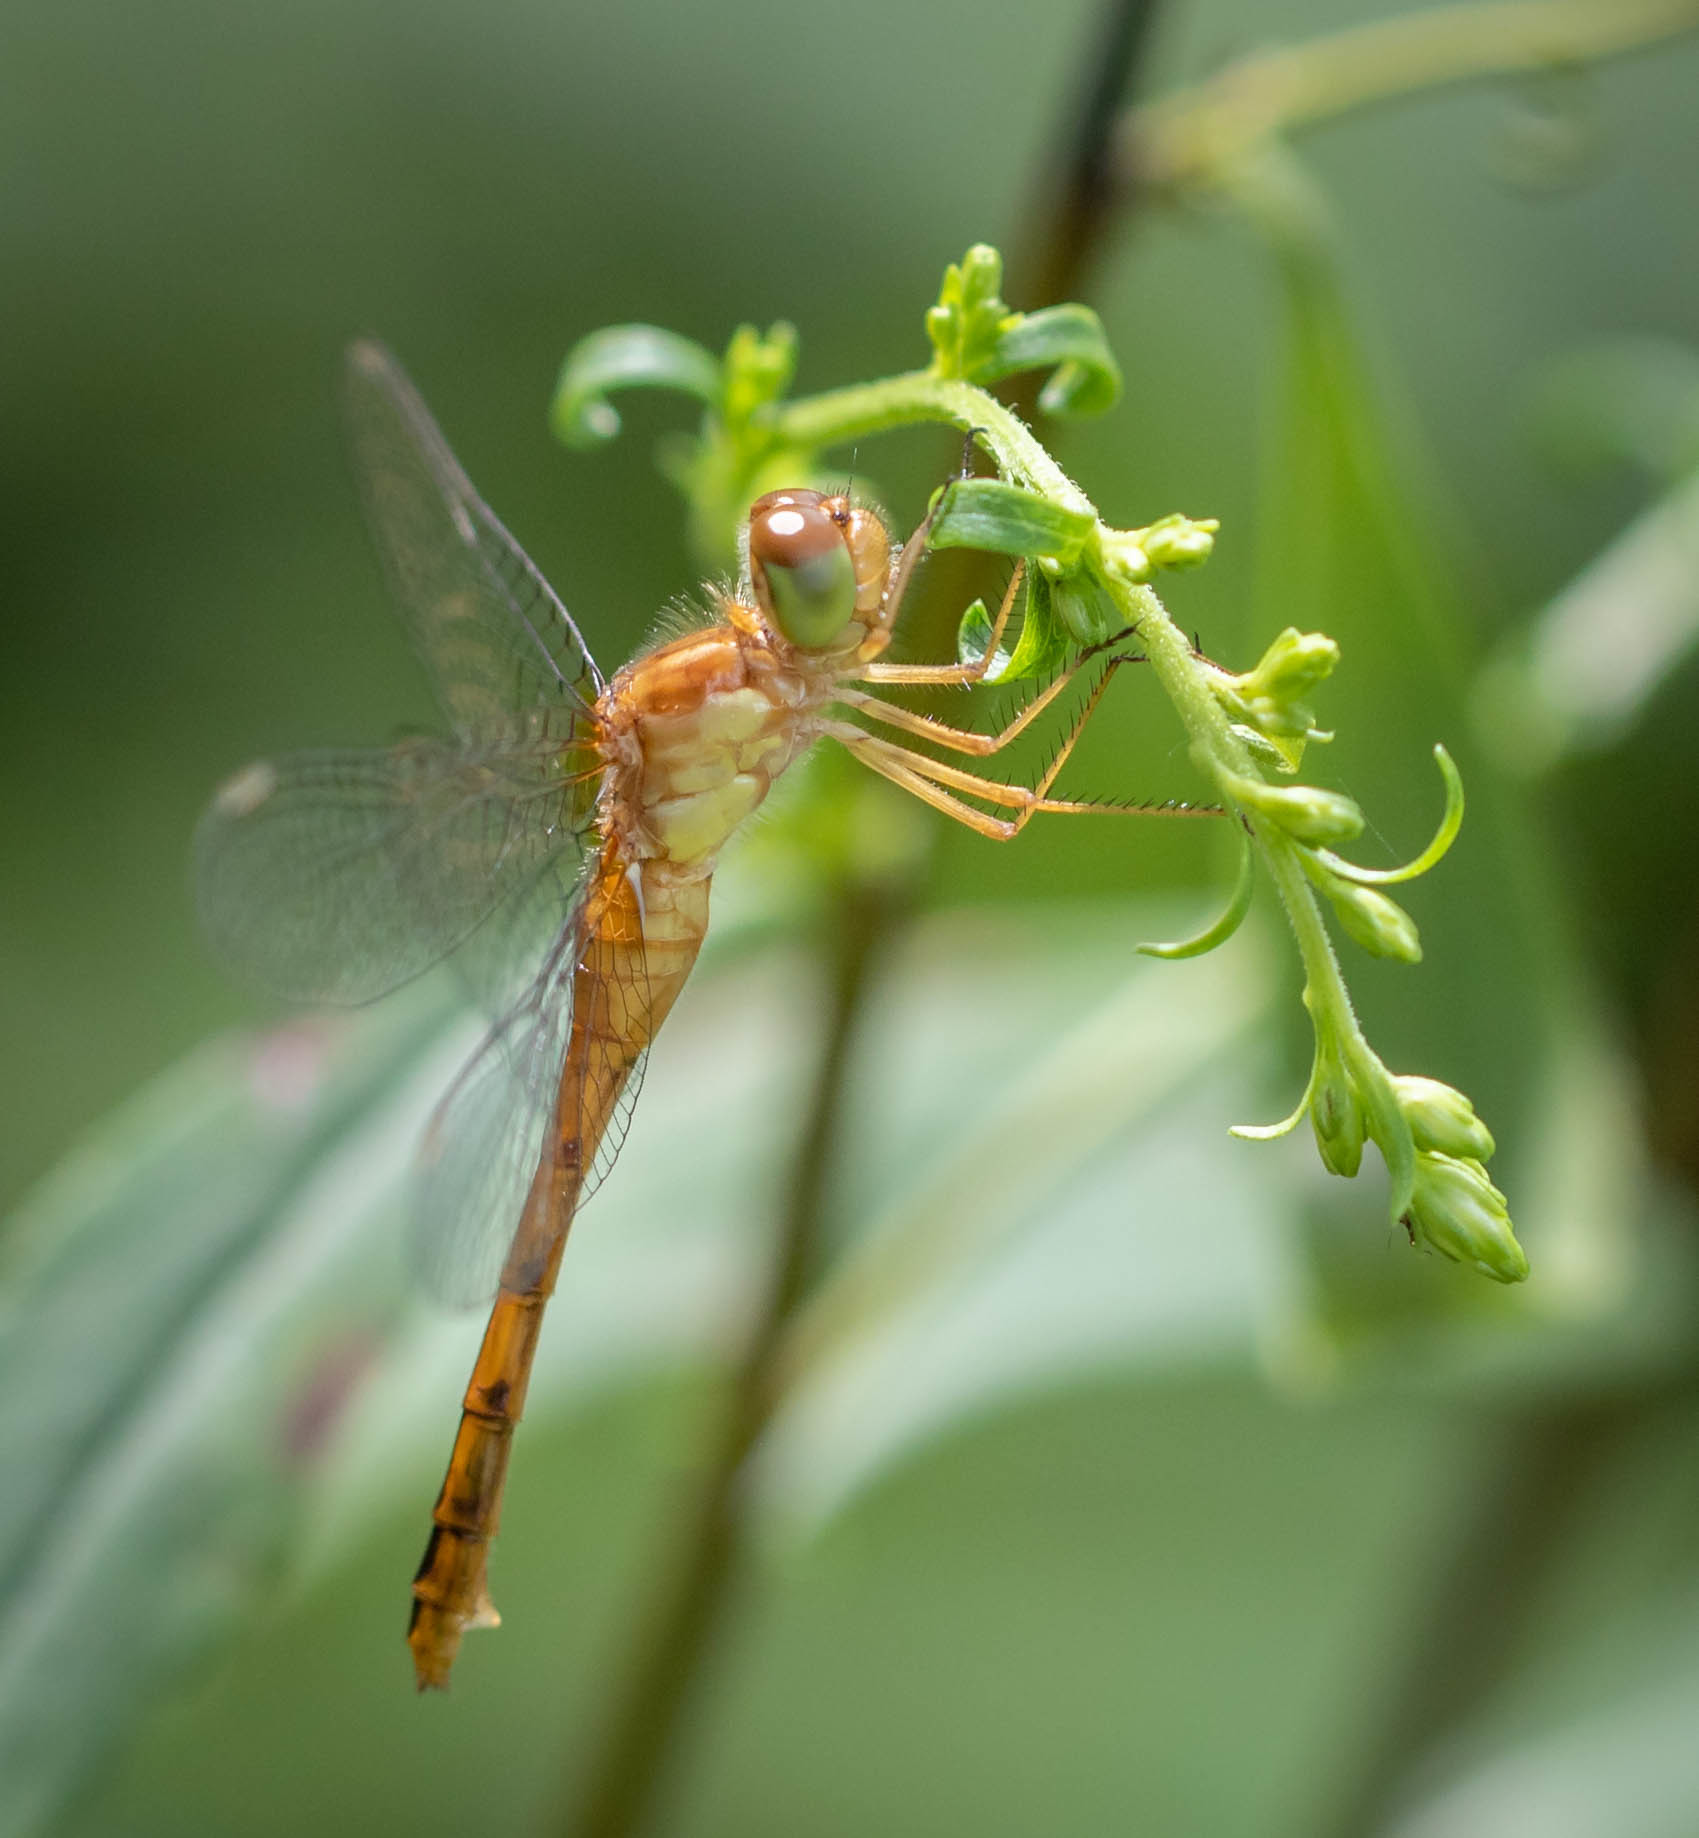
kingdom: Animalia
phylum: Arthropoda
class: Insecta
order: Odonata
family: Libellulidae
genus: Sympetrum
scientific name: Sympetrum vicinum
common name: Autumn meadowhawk
